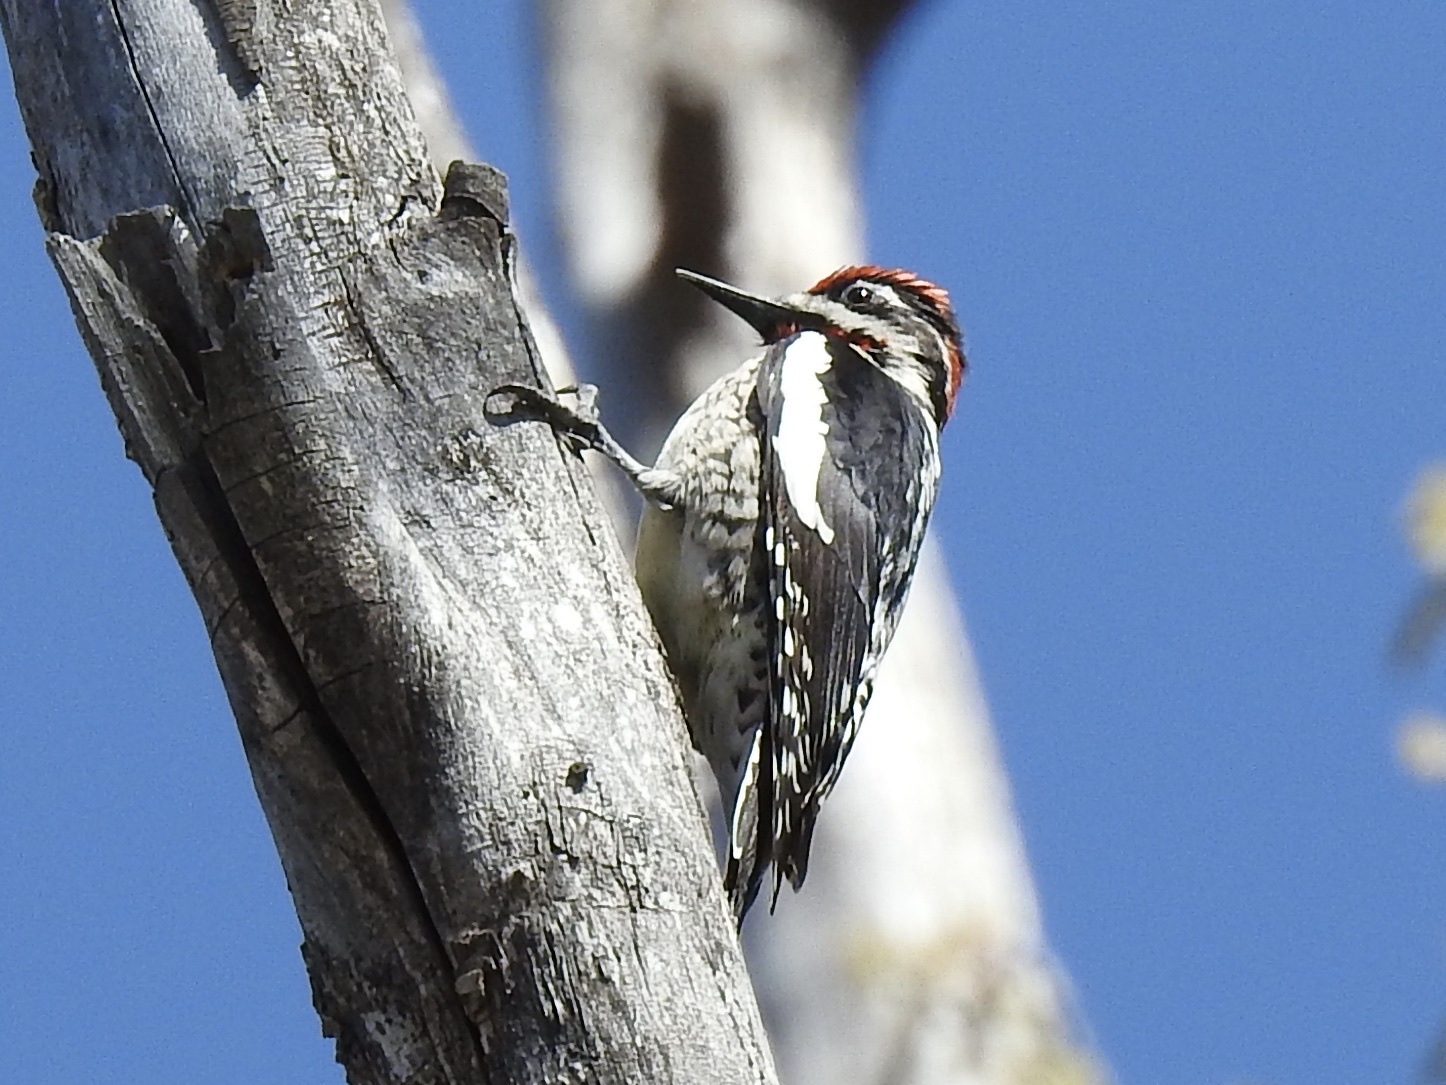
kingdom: Animalia
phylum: Chordata
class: Aves
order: Piciformes
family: Picidae
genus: Sphyrapicus
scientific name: Sphyrapicus nuchalis
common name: Red-naped sapsucker
